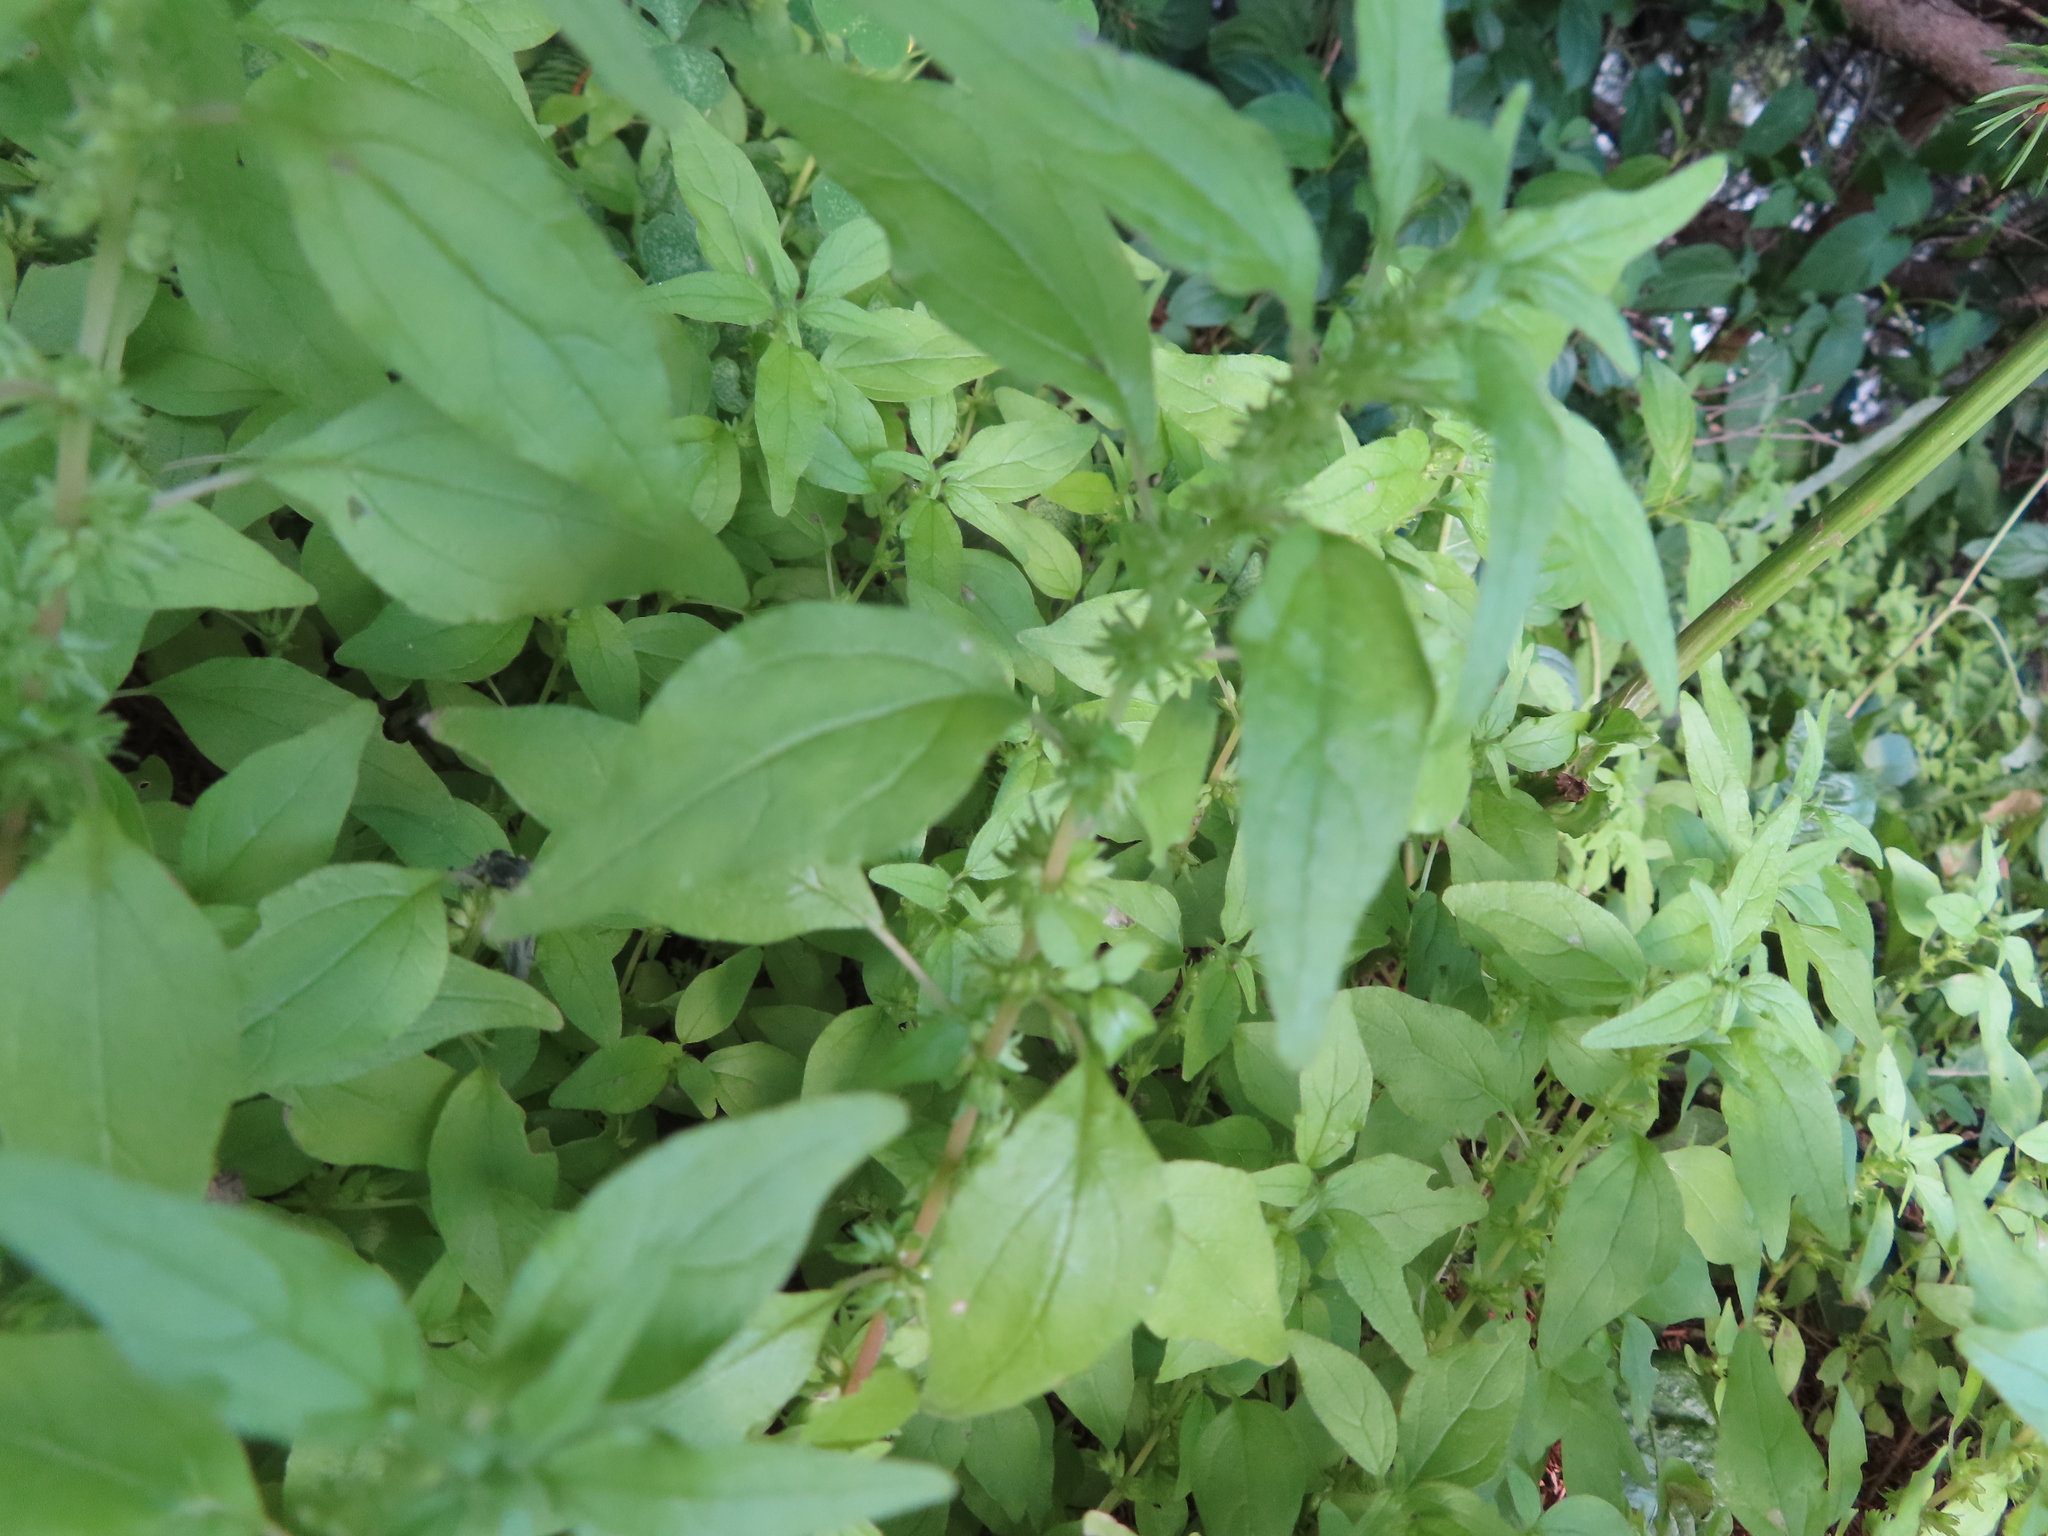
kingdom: Plantae
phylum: Tracheophyta
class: Magnoliopsida
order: Rosales
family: Urticaceae
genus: Parietaria
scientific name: Parietaria pensylvanica
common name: Pennsylvania pellitory
